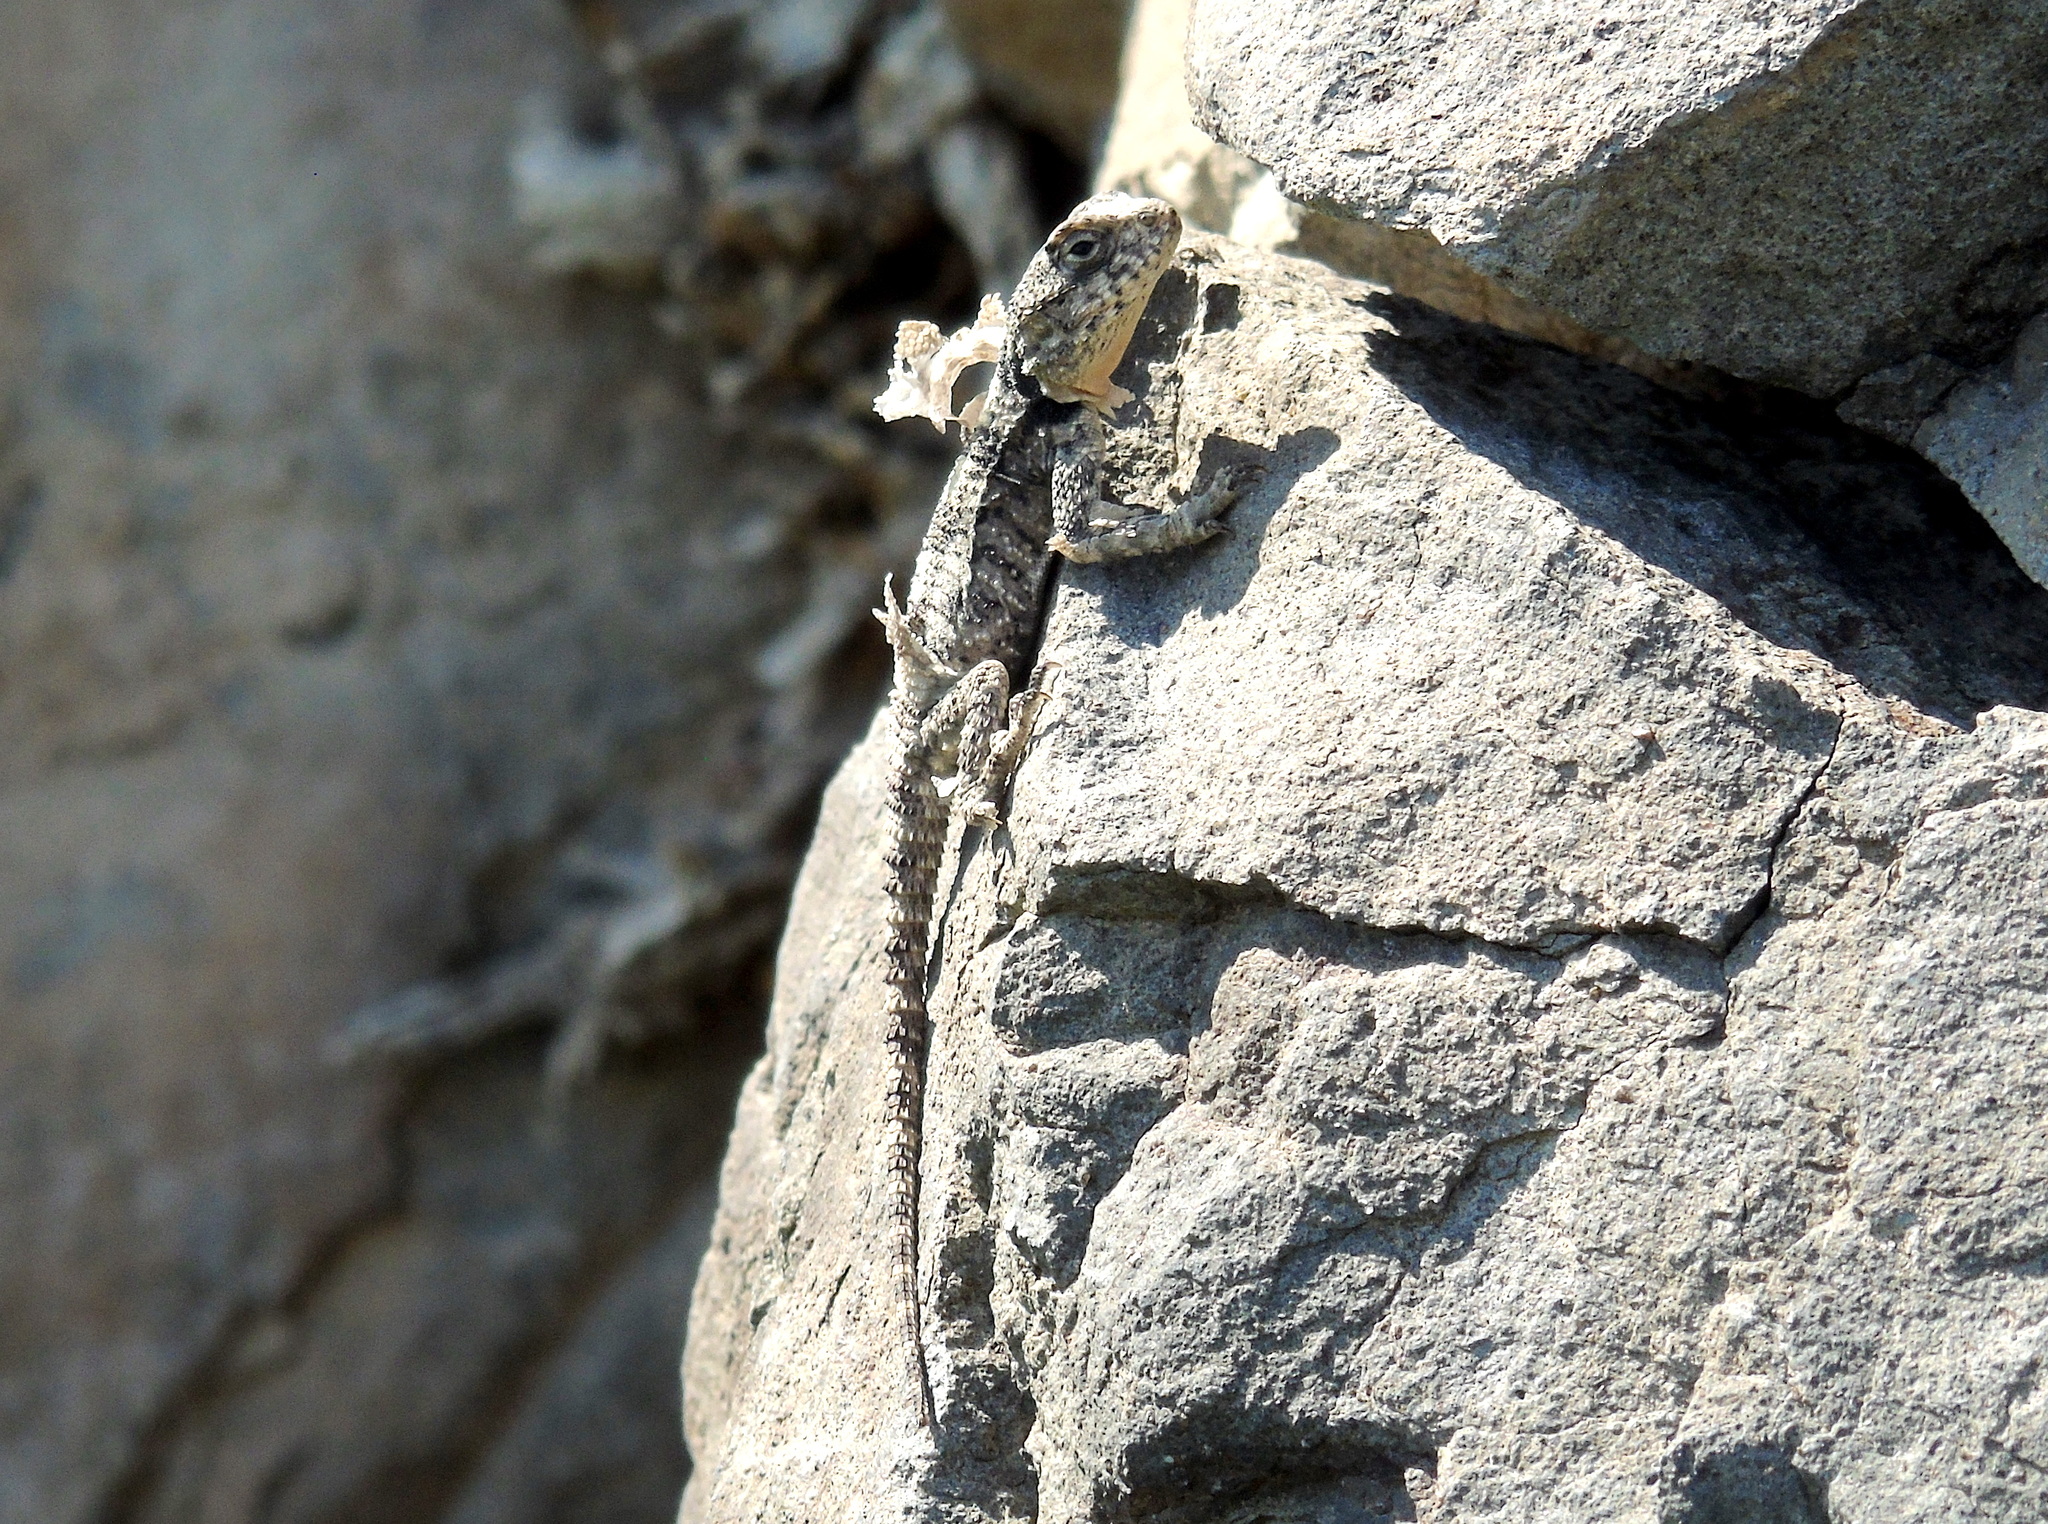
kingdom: Animalia
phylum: Chordata
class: Squamata
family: Agamidae
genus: Stellagama
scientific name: Stellagama stellio
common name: Starred agama
